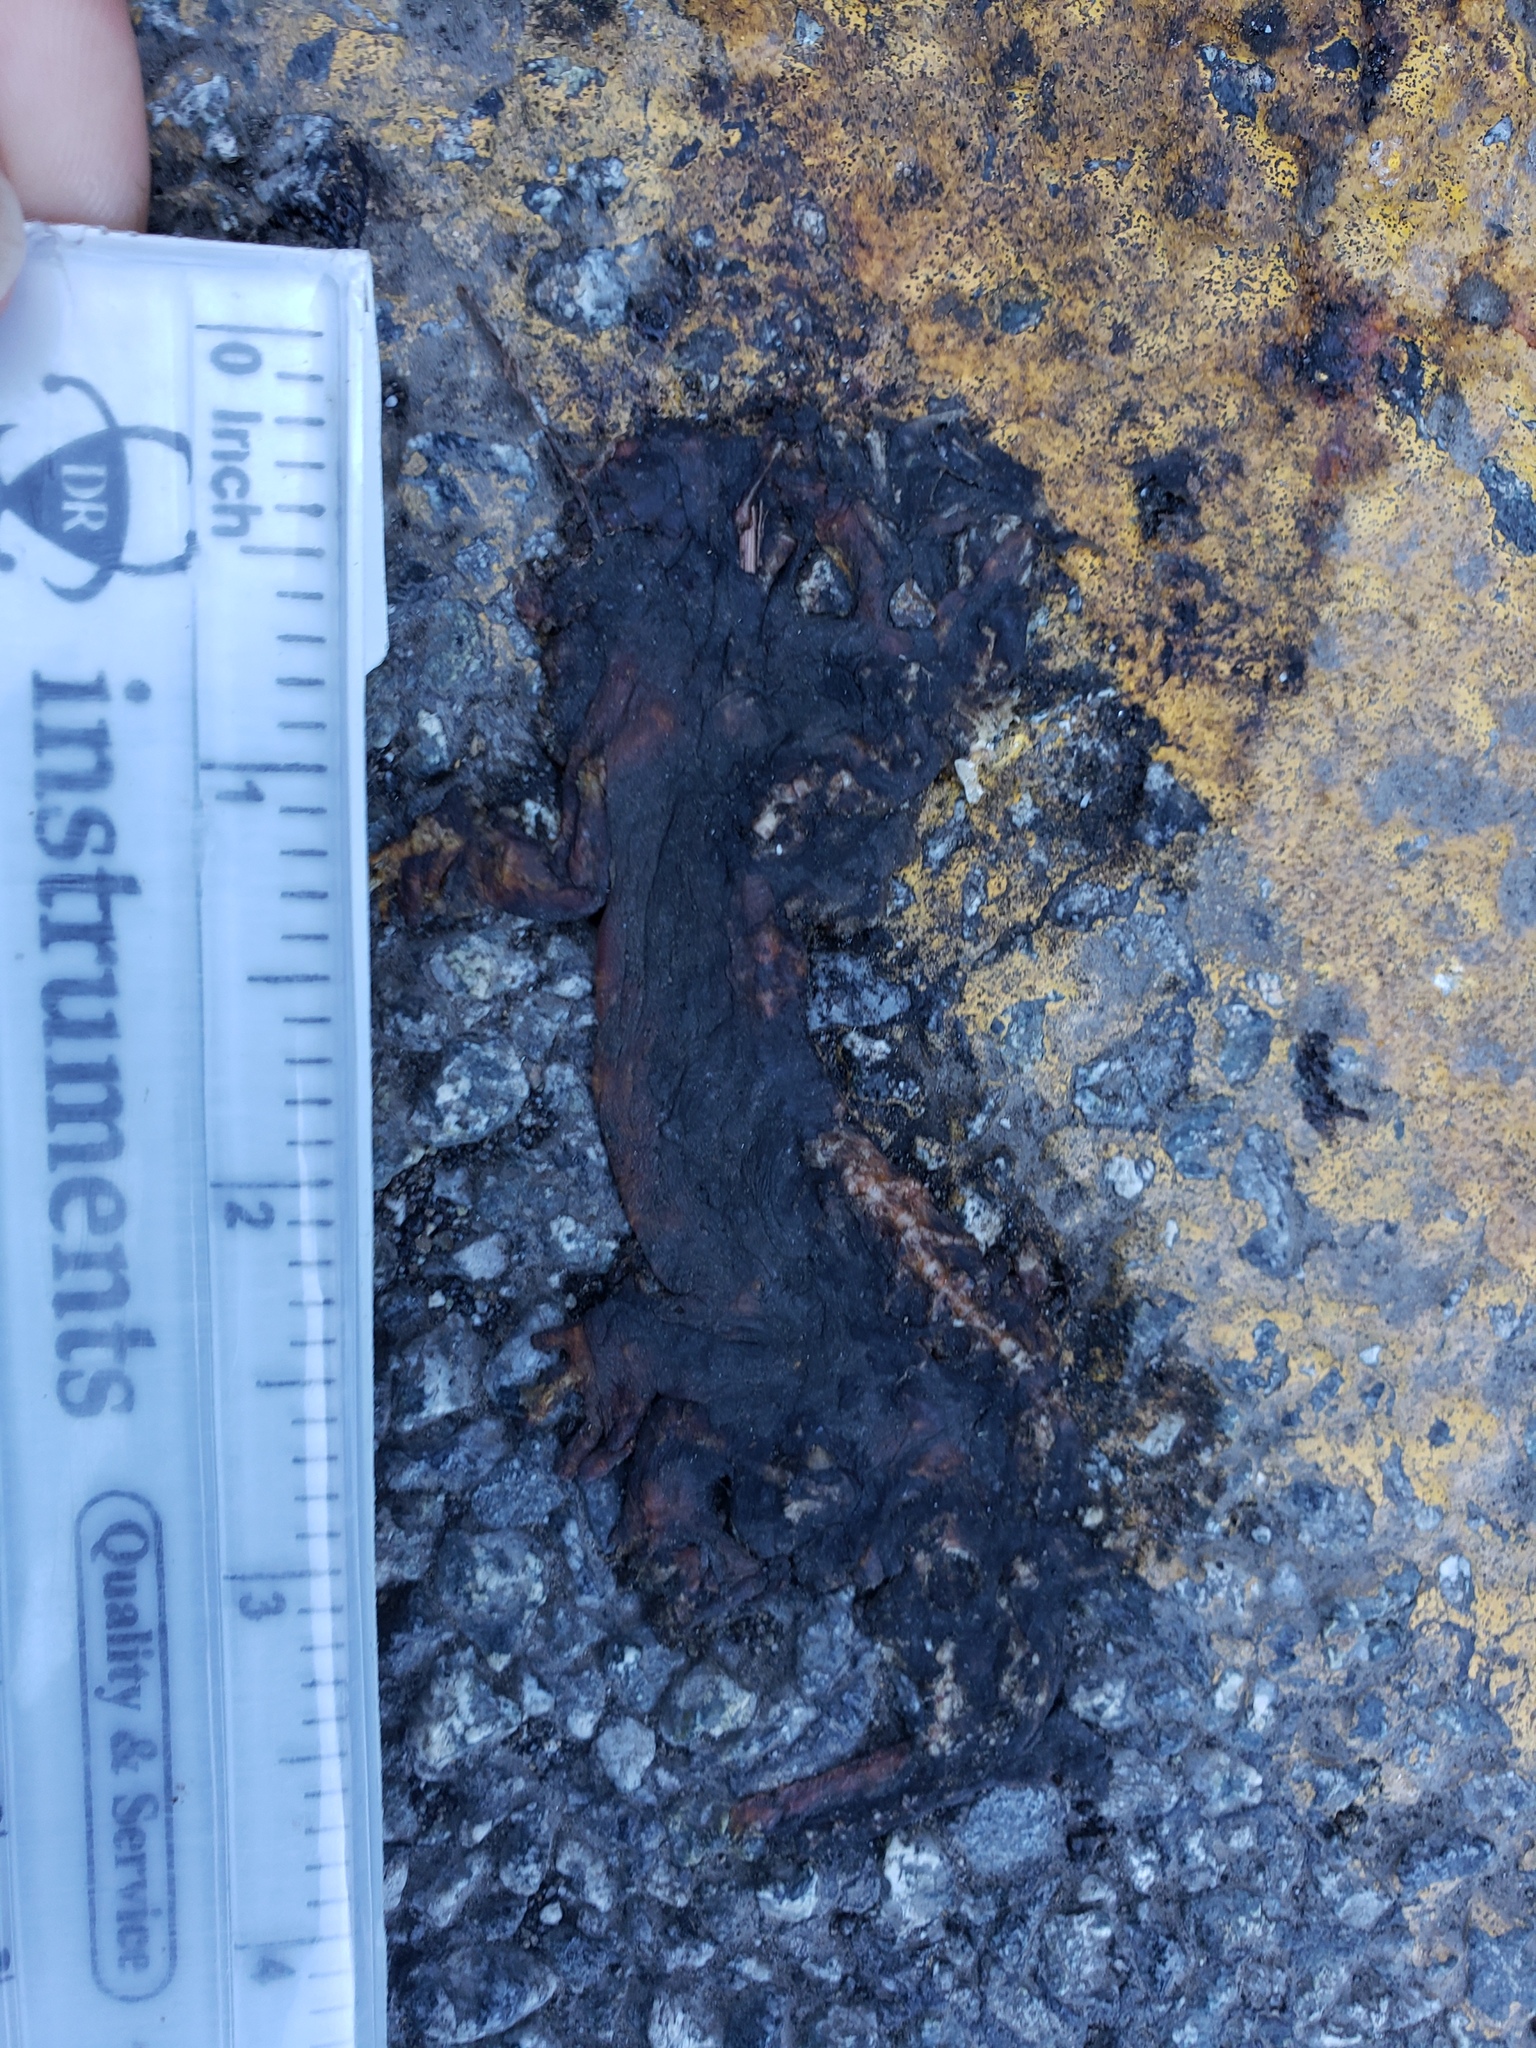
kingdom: Animalia
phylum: Chordata
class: Amphibia
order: Caudata
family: Salamandridae
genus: Taricha
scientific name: Taricha
